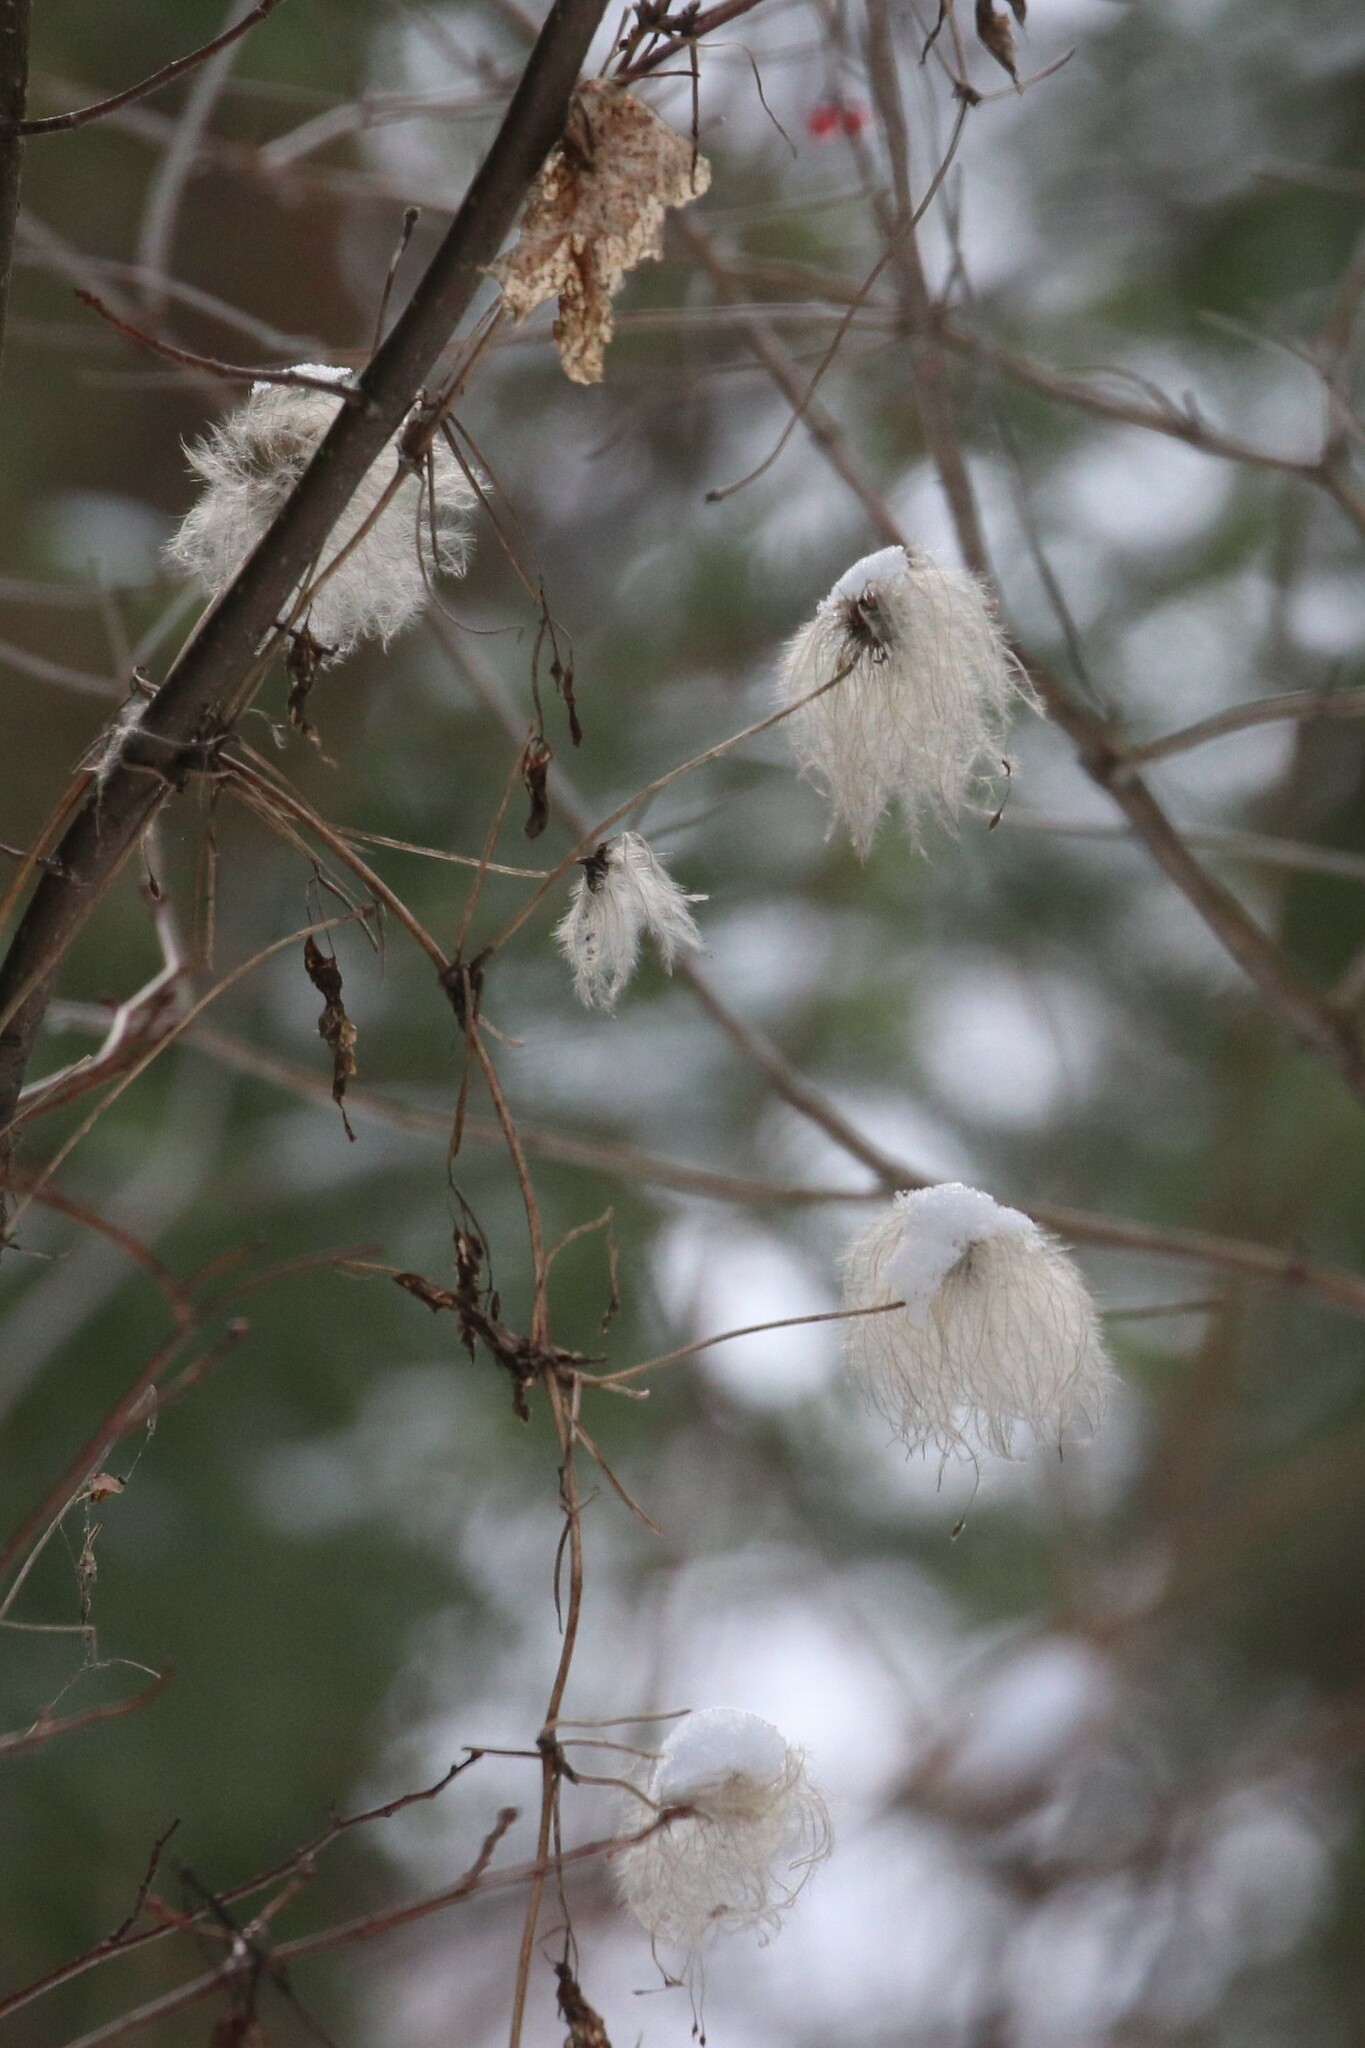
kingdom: Plantae
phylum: Tracheophyta
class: Magnoliopsida
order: Ranunculales
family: Ranunculaceae
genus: Clematis
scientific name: Clematis sibirica
